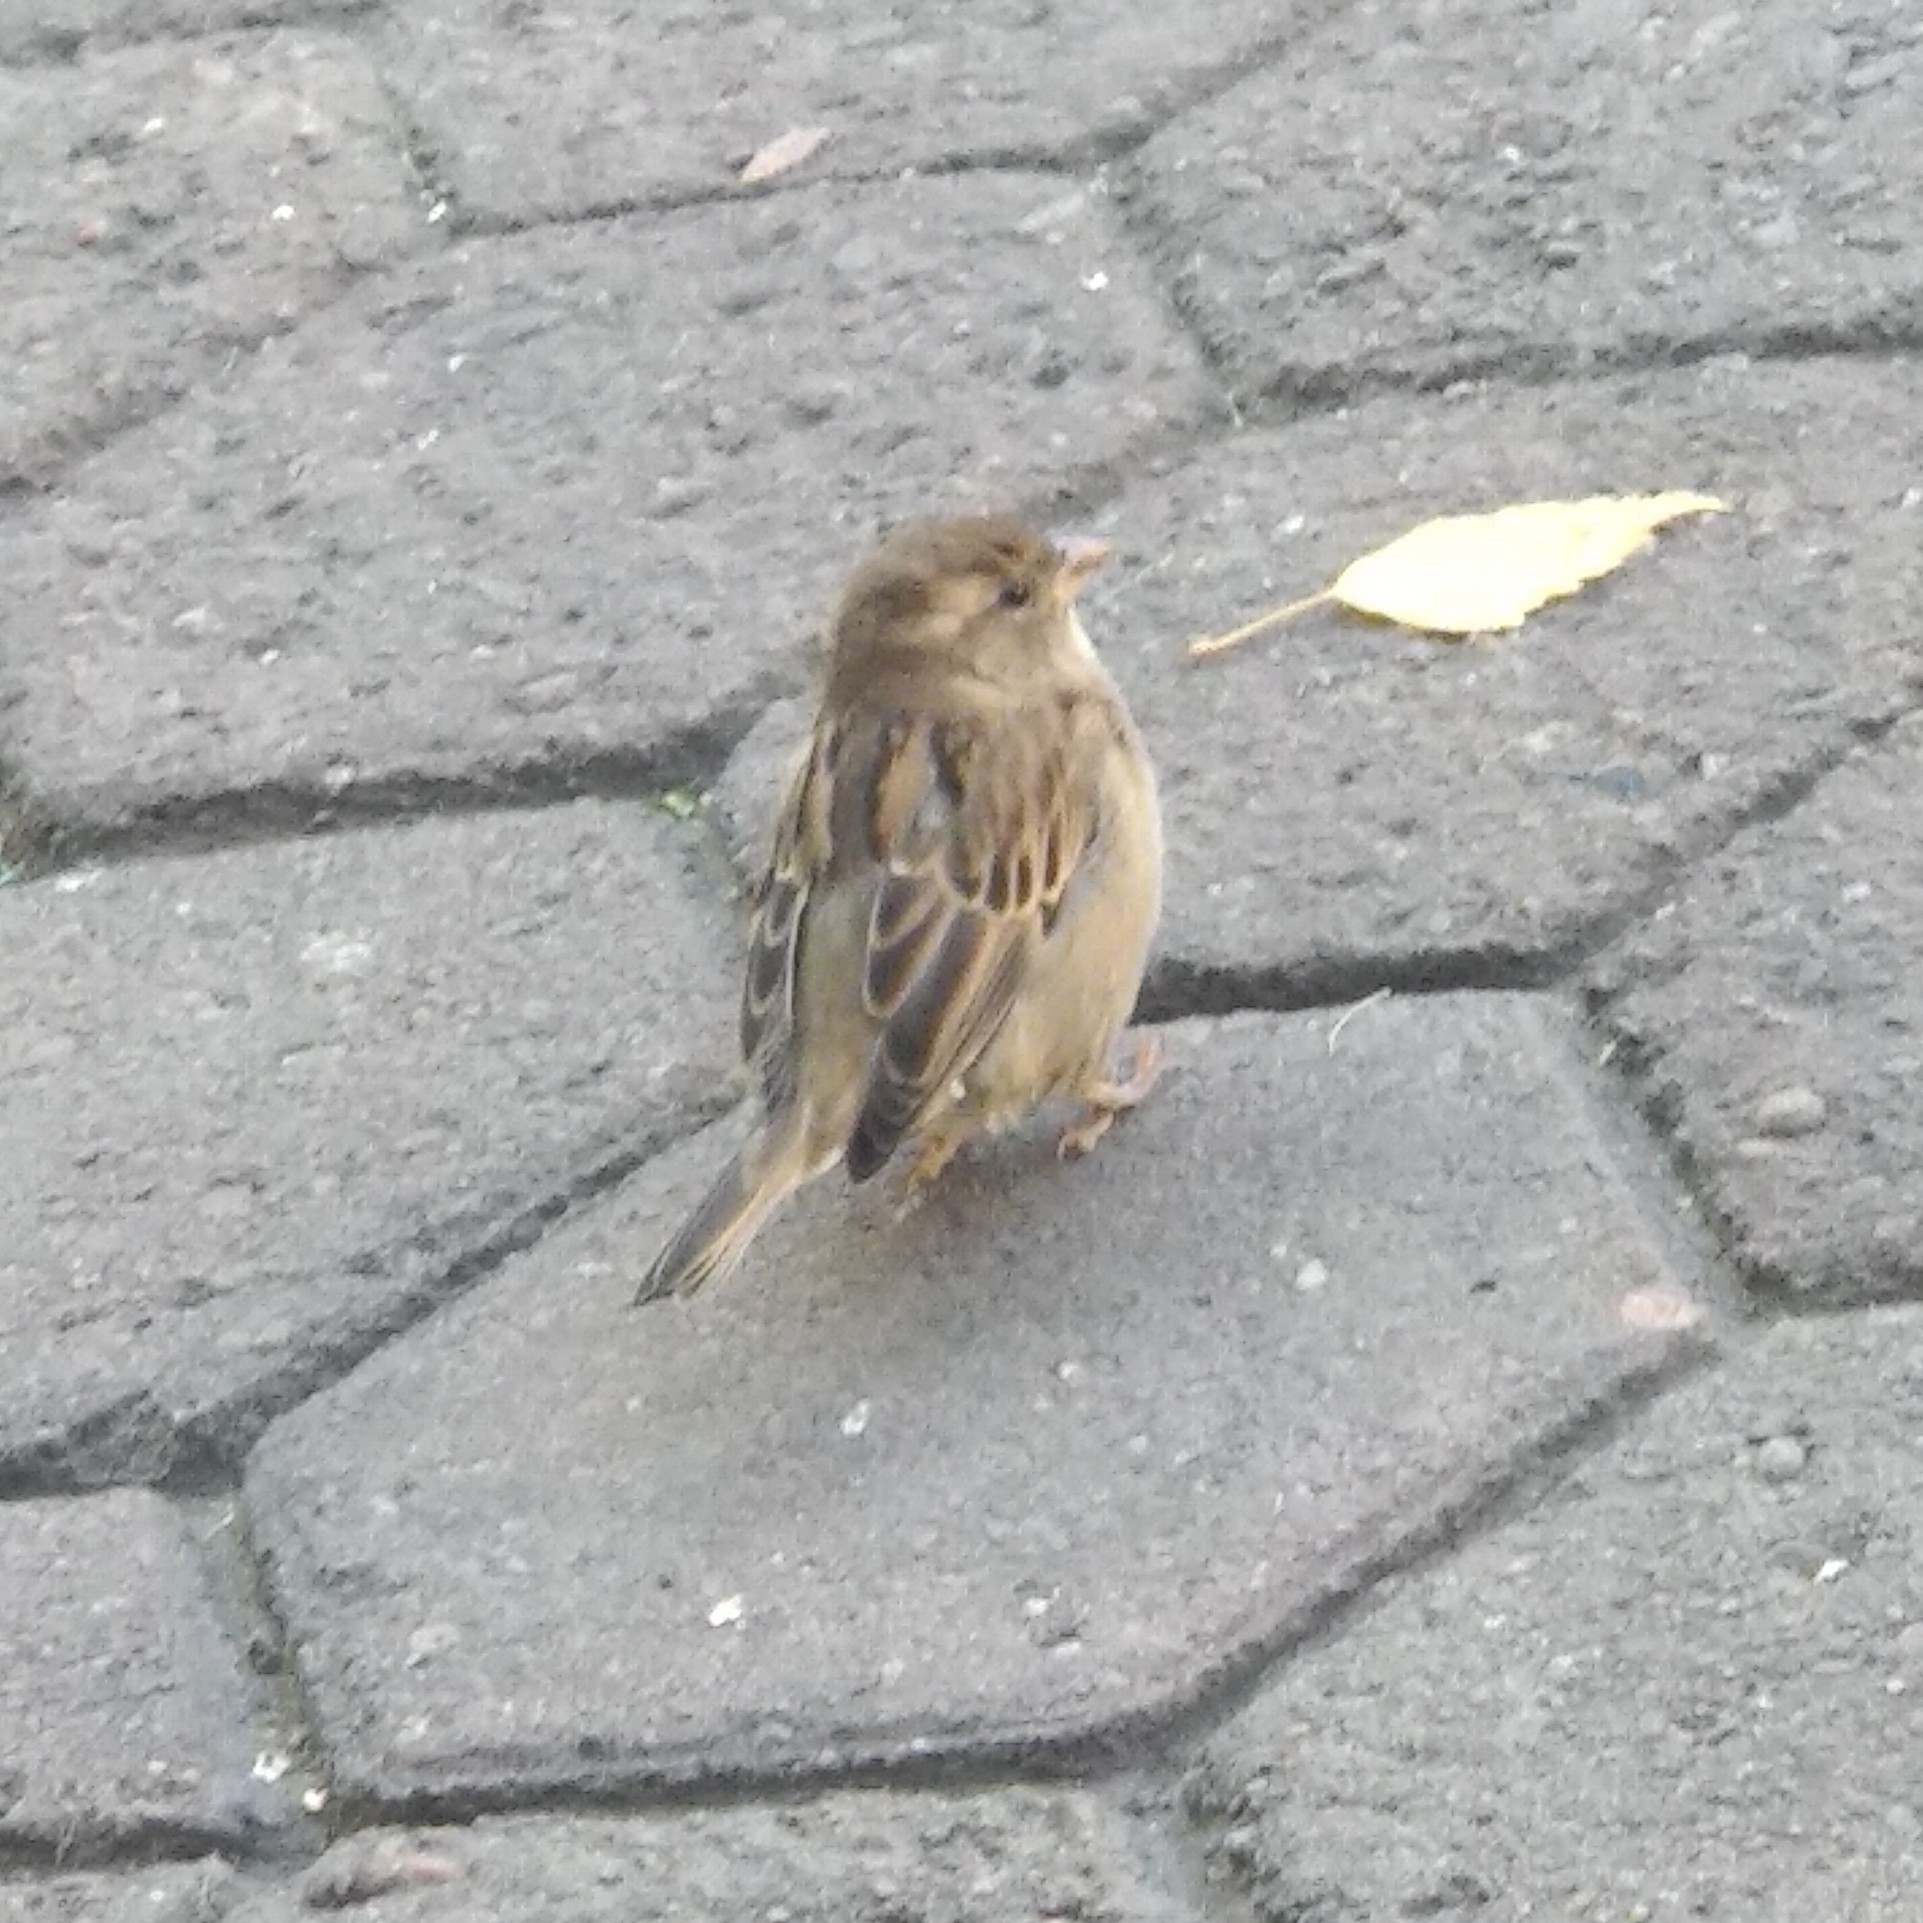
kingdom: Animalia
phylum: Chordata
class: Aves
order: Passeriformes
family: Passeridae
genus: Passer
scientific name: Passer domesticus
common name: House sparrow
